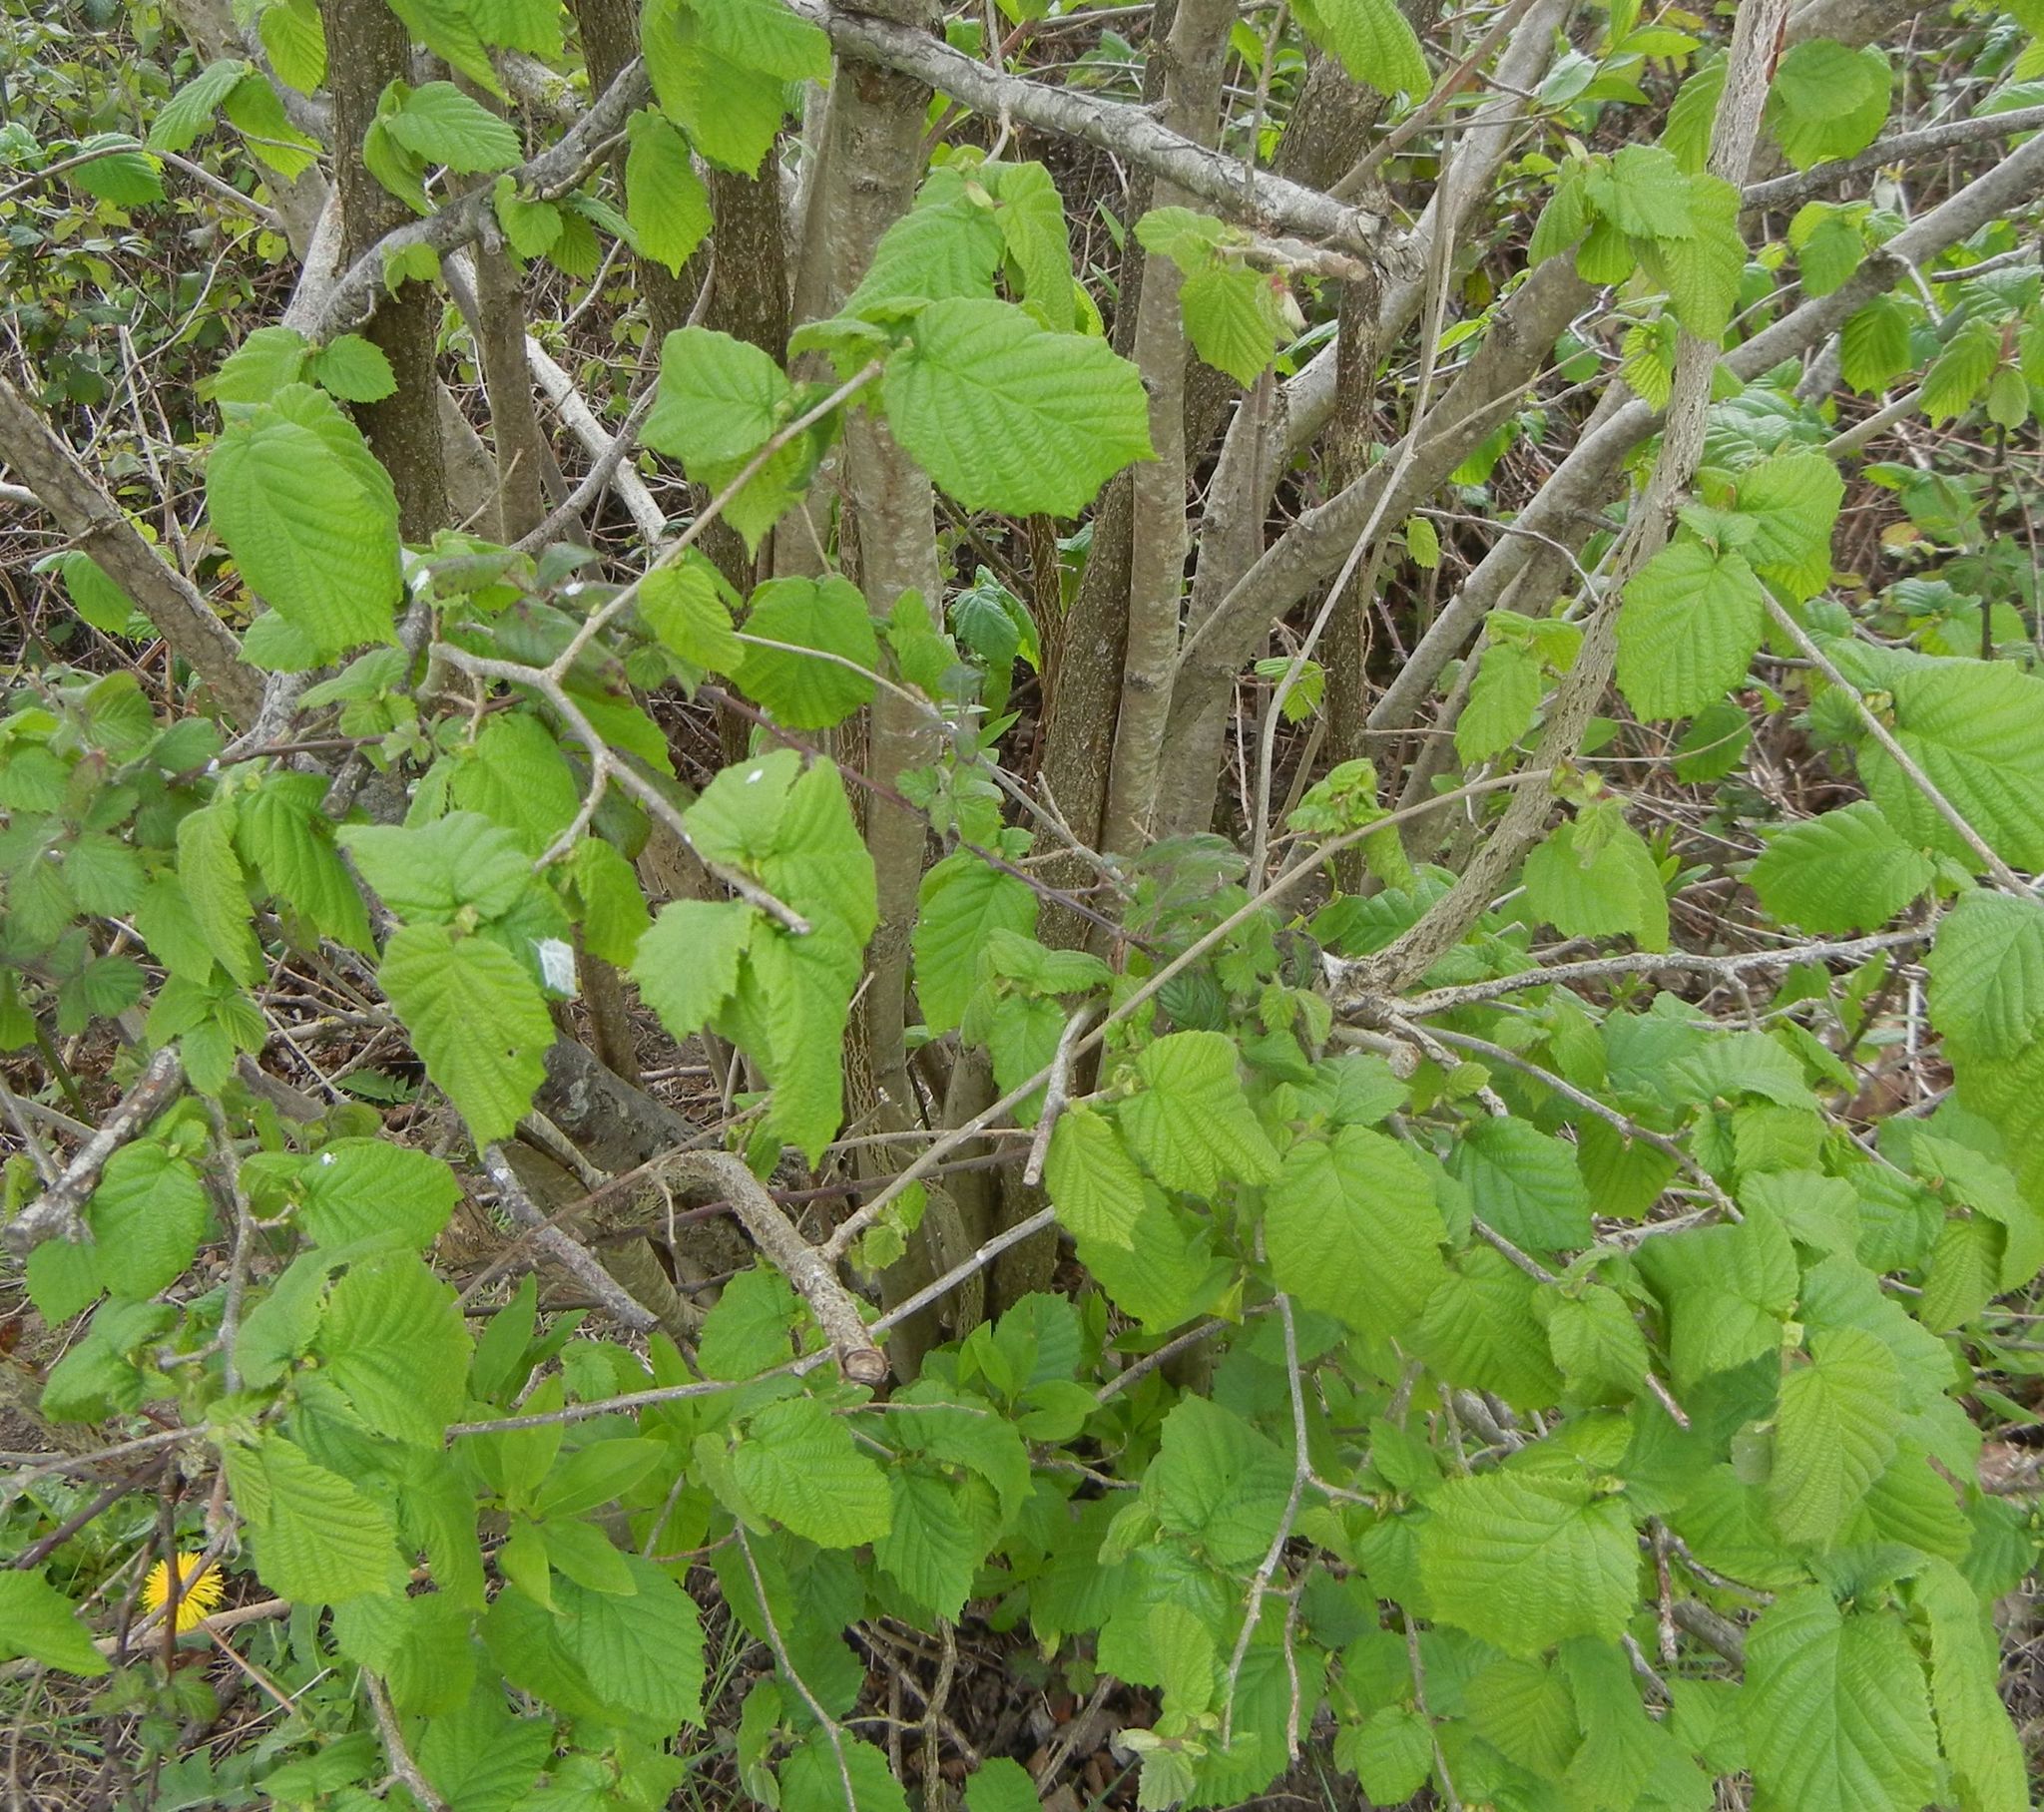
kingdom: Plantae
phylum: Tracheophyta
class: Magnoliopsida
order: Fagales
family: Betulaceae
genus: Corylus
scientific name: Corylus avellana
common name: European hazel
